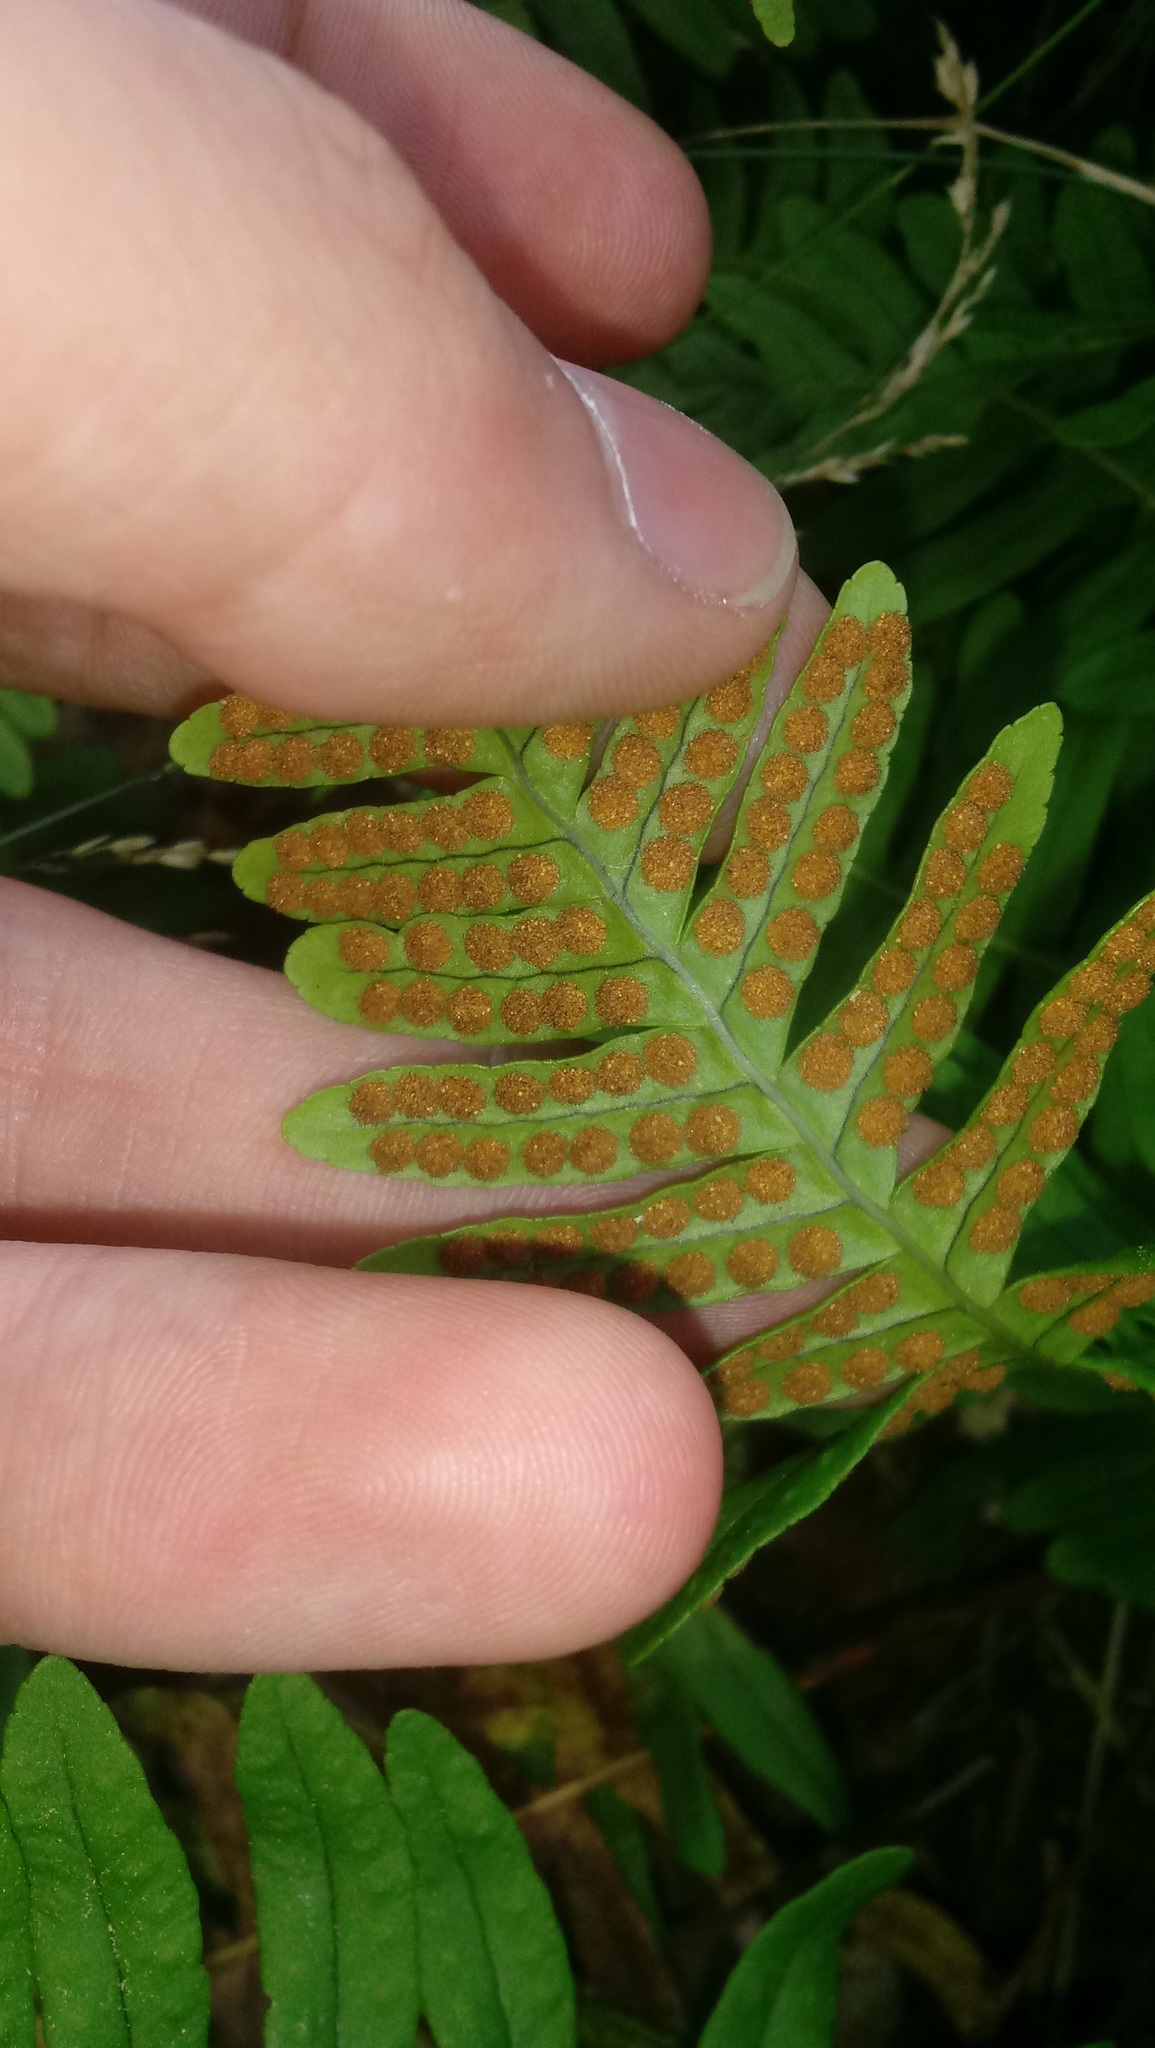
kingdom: Plantae
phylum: Tracheophyta
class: Polypodiopsida
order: Polypodiales
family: Polypodiaceae
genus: Polypodium
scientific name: Polypodium virginianum
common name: American wall fern
